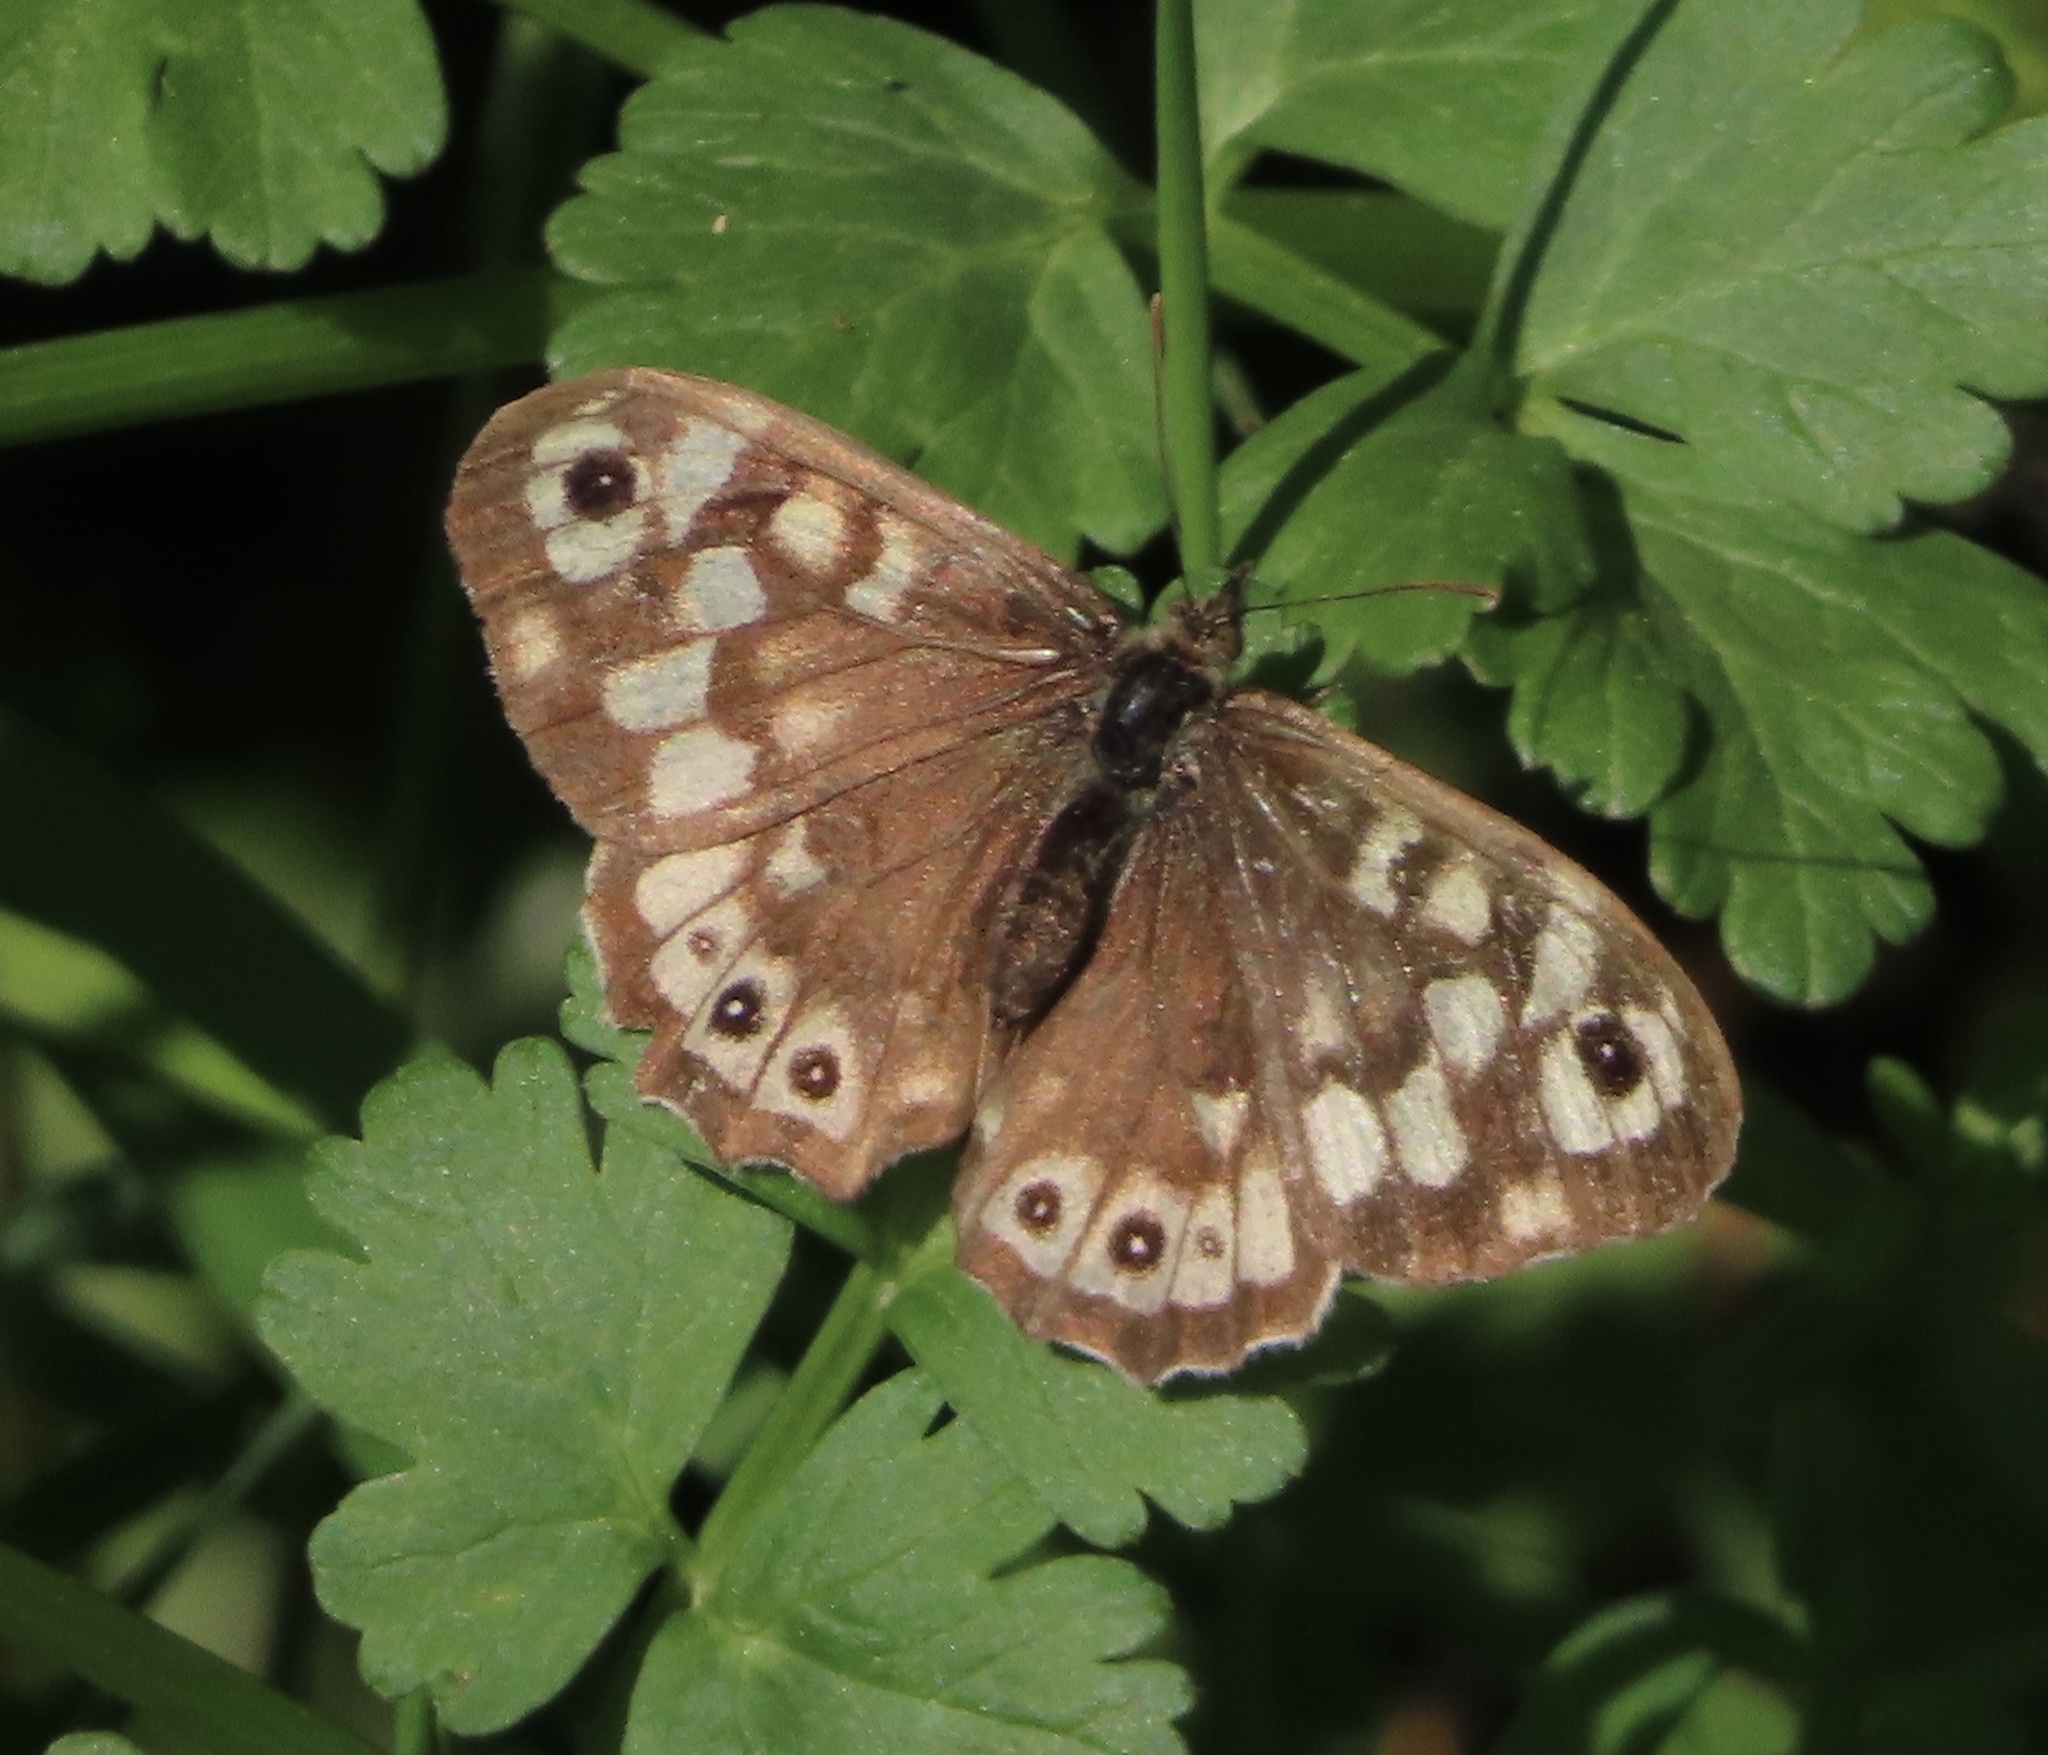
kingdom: Animalia
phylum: Arthropoda
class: Insecta
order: Lepidoptera
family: Nymphalidae
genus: Pararge
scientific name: Pararge aegeria
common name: Speckled wood
